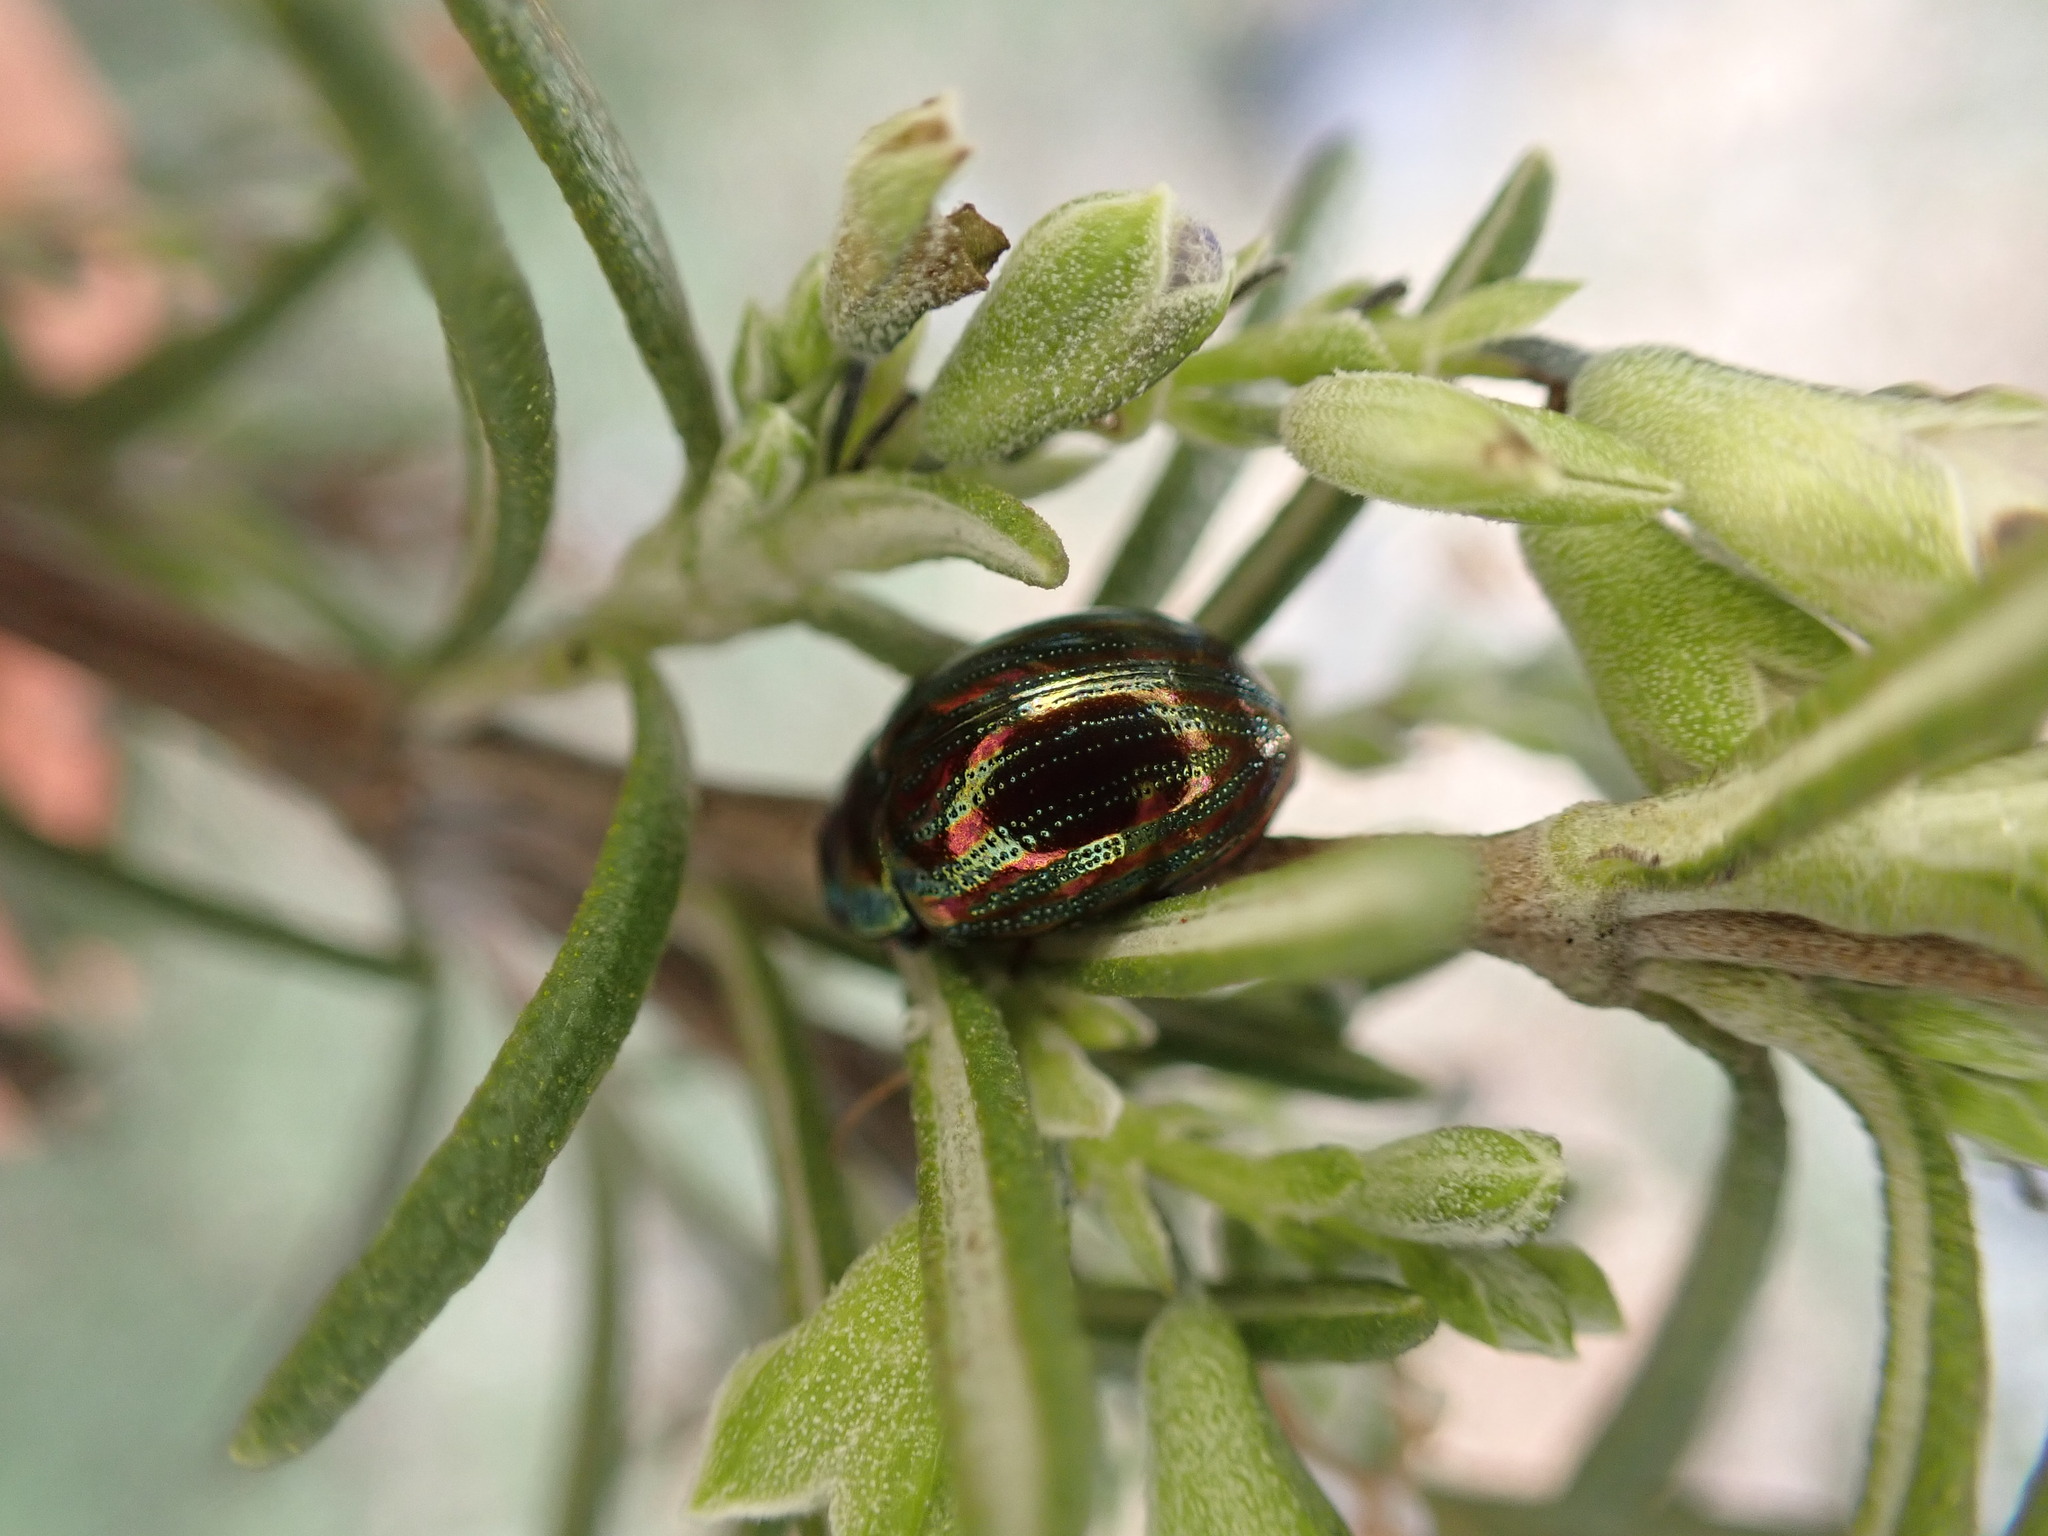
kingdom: Animalia
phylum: Arthropoda
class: Insecta
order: Coleoptera
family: Chrysomelidae
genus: Chrysolina
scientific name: Chrysolina americana
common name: Rosemary beetle
